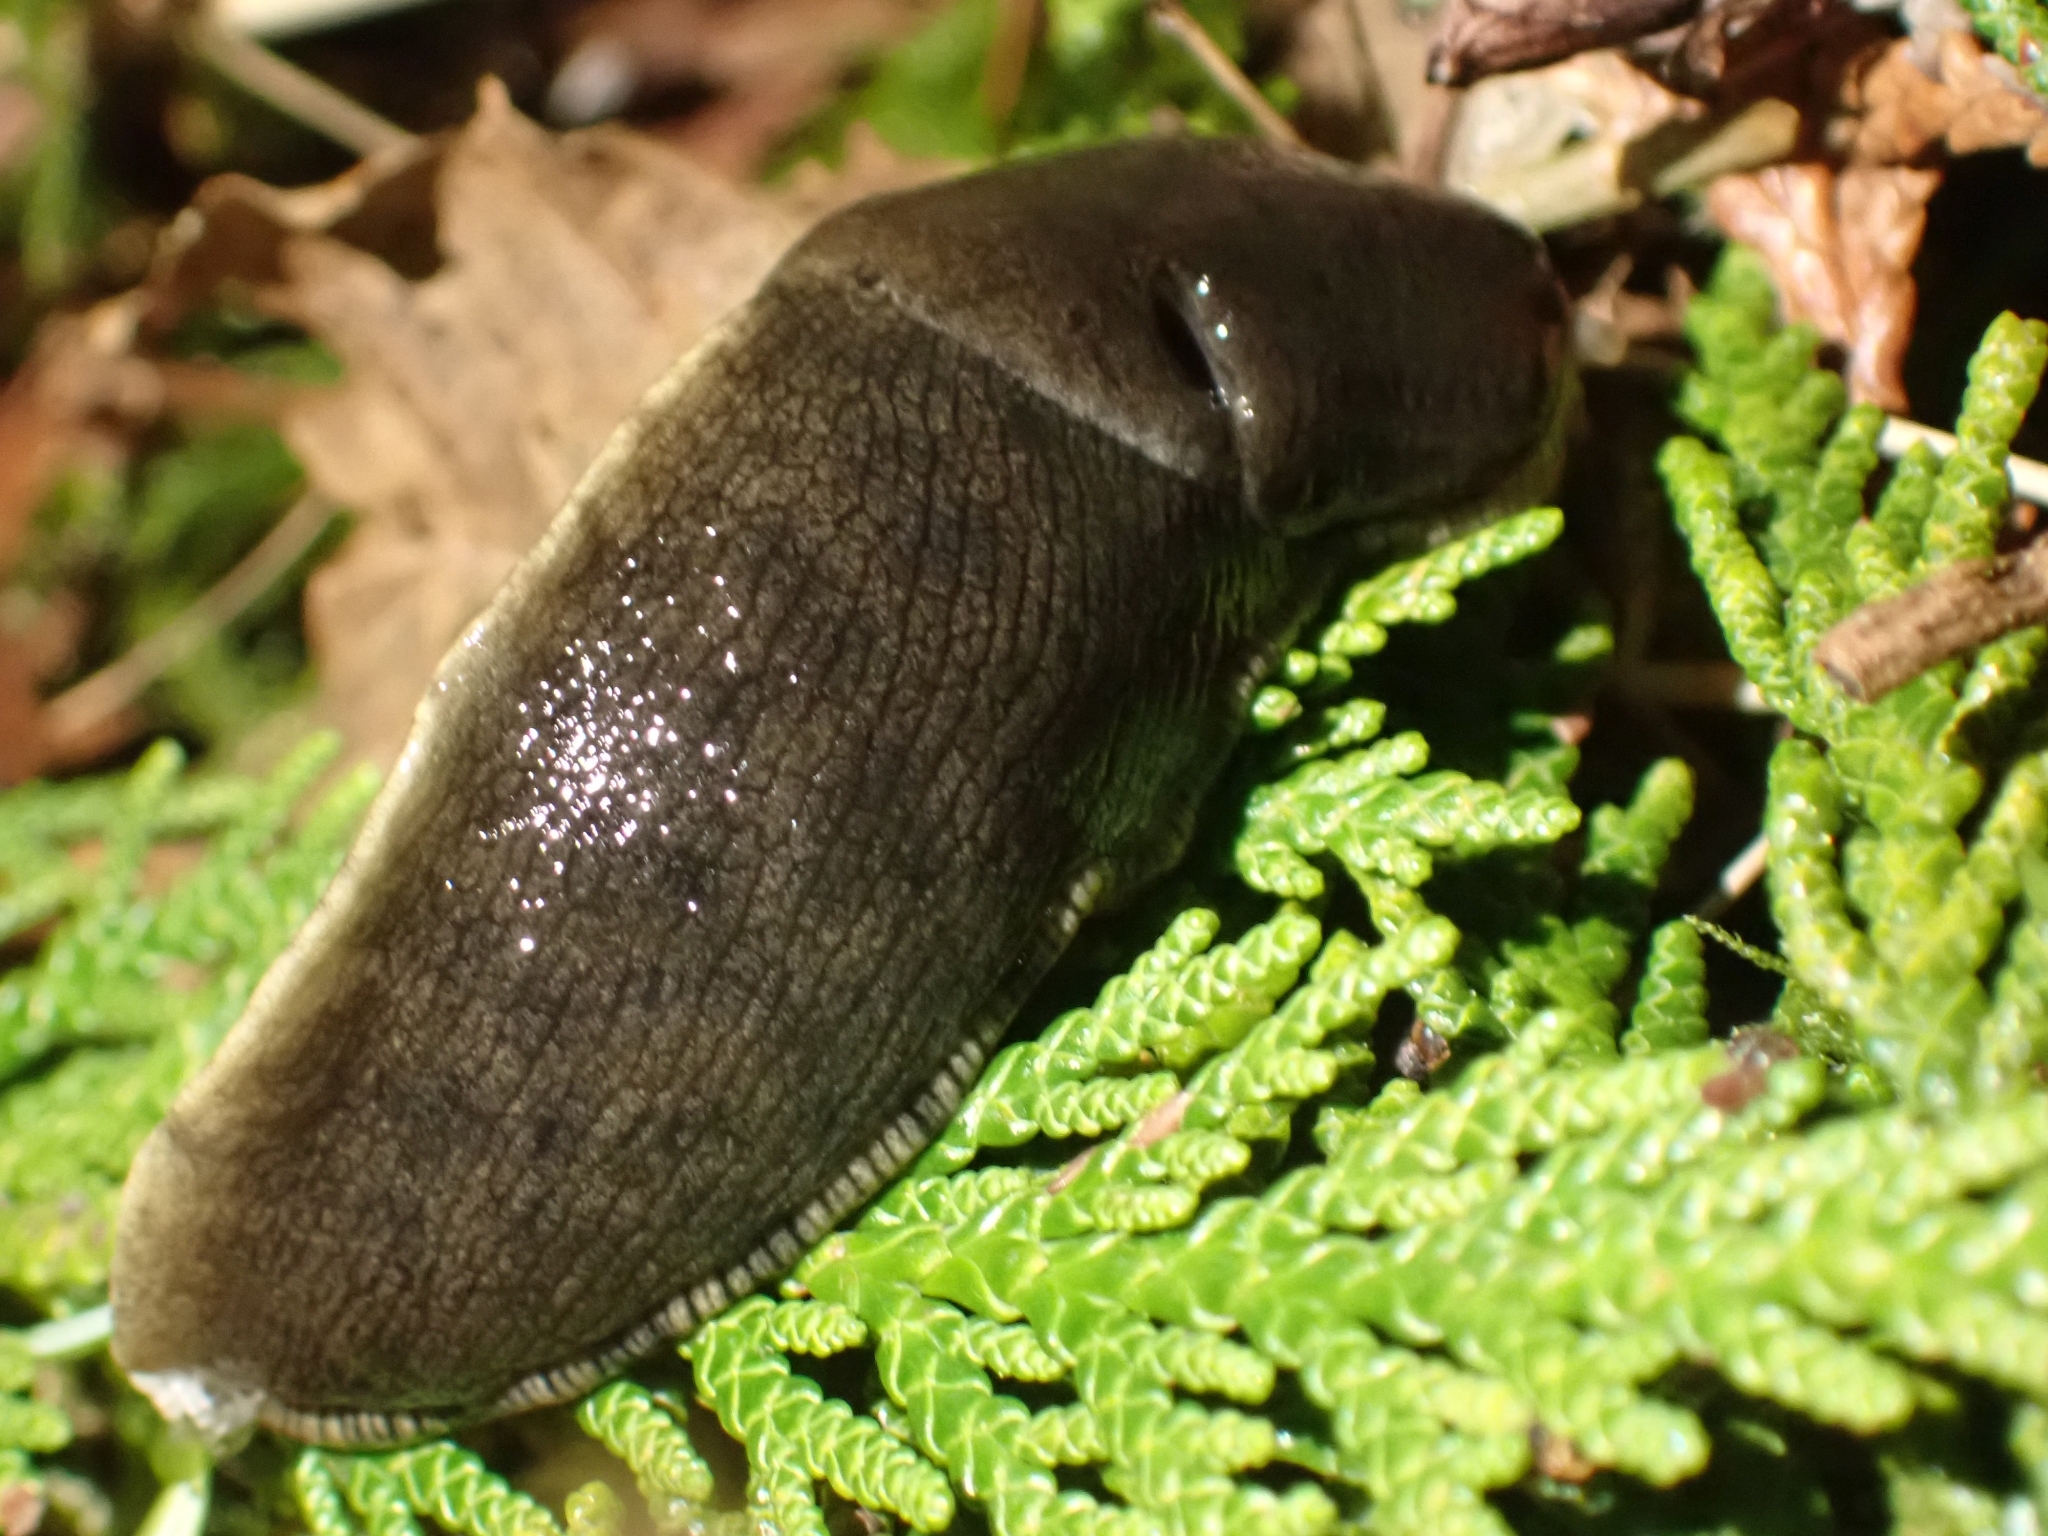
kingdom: Animalia
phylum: Mollusca
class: Gastropoda
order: Stylommatophora
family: Ariolimacidae
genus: Ariolimax
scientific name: Ariolimax columbianus
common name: Pacific banana slug
